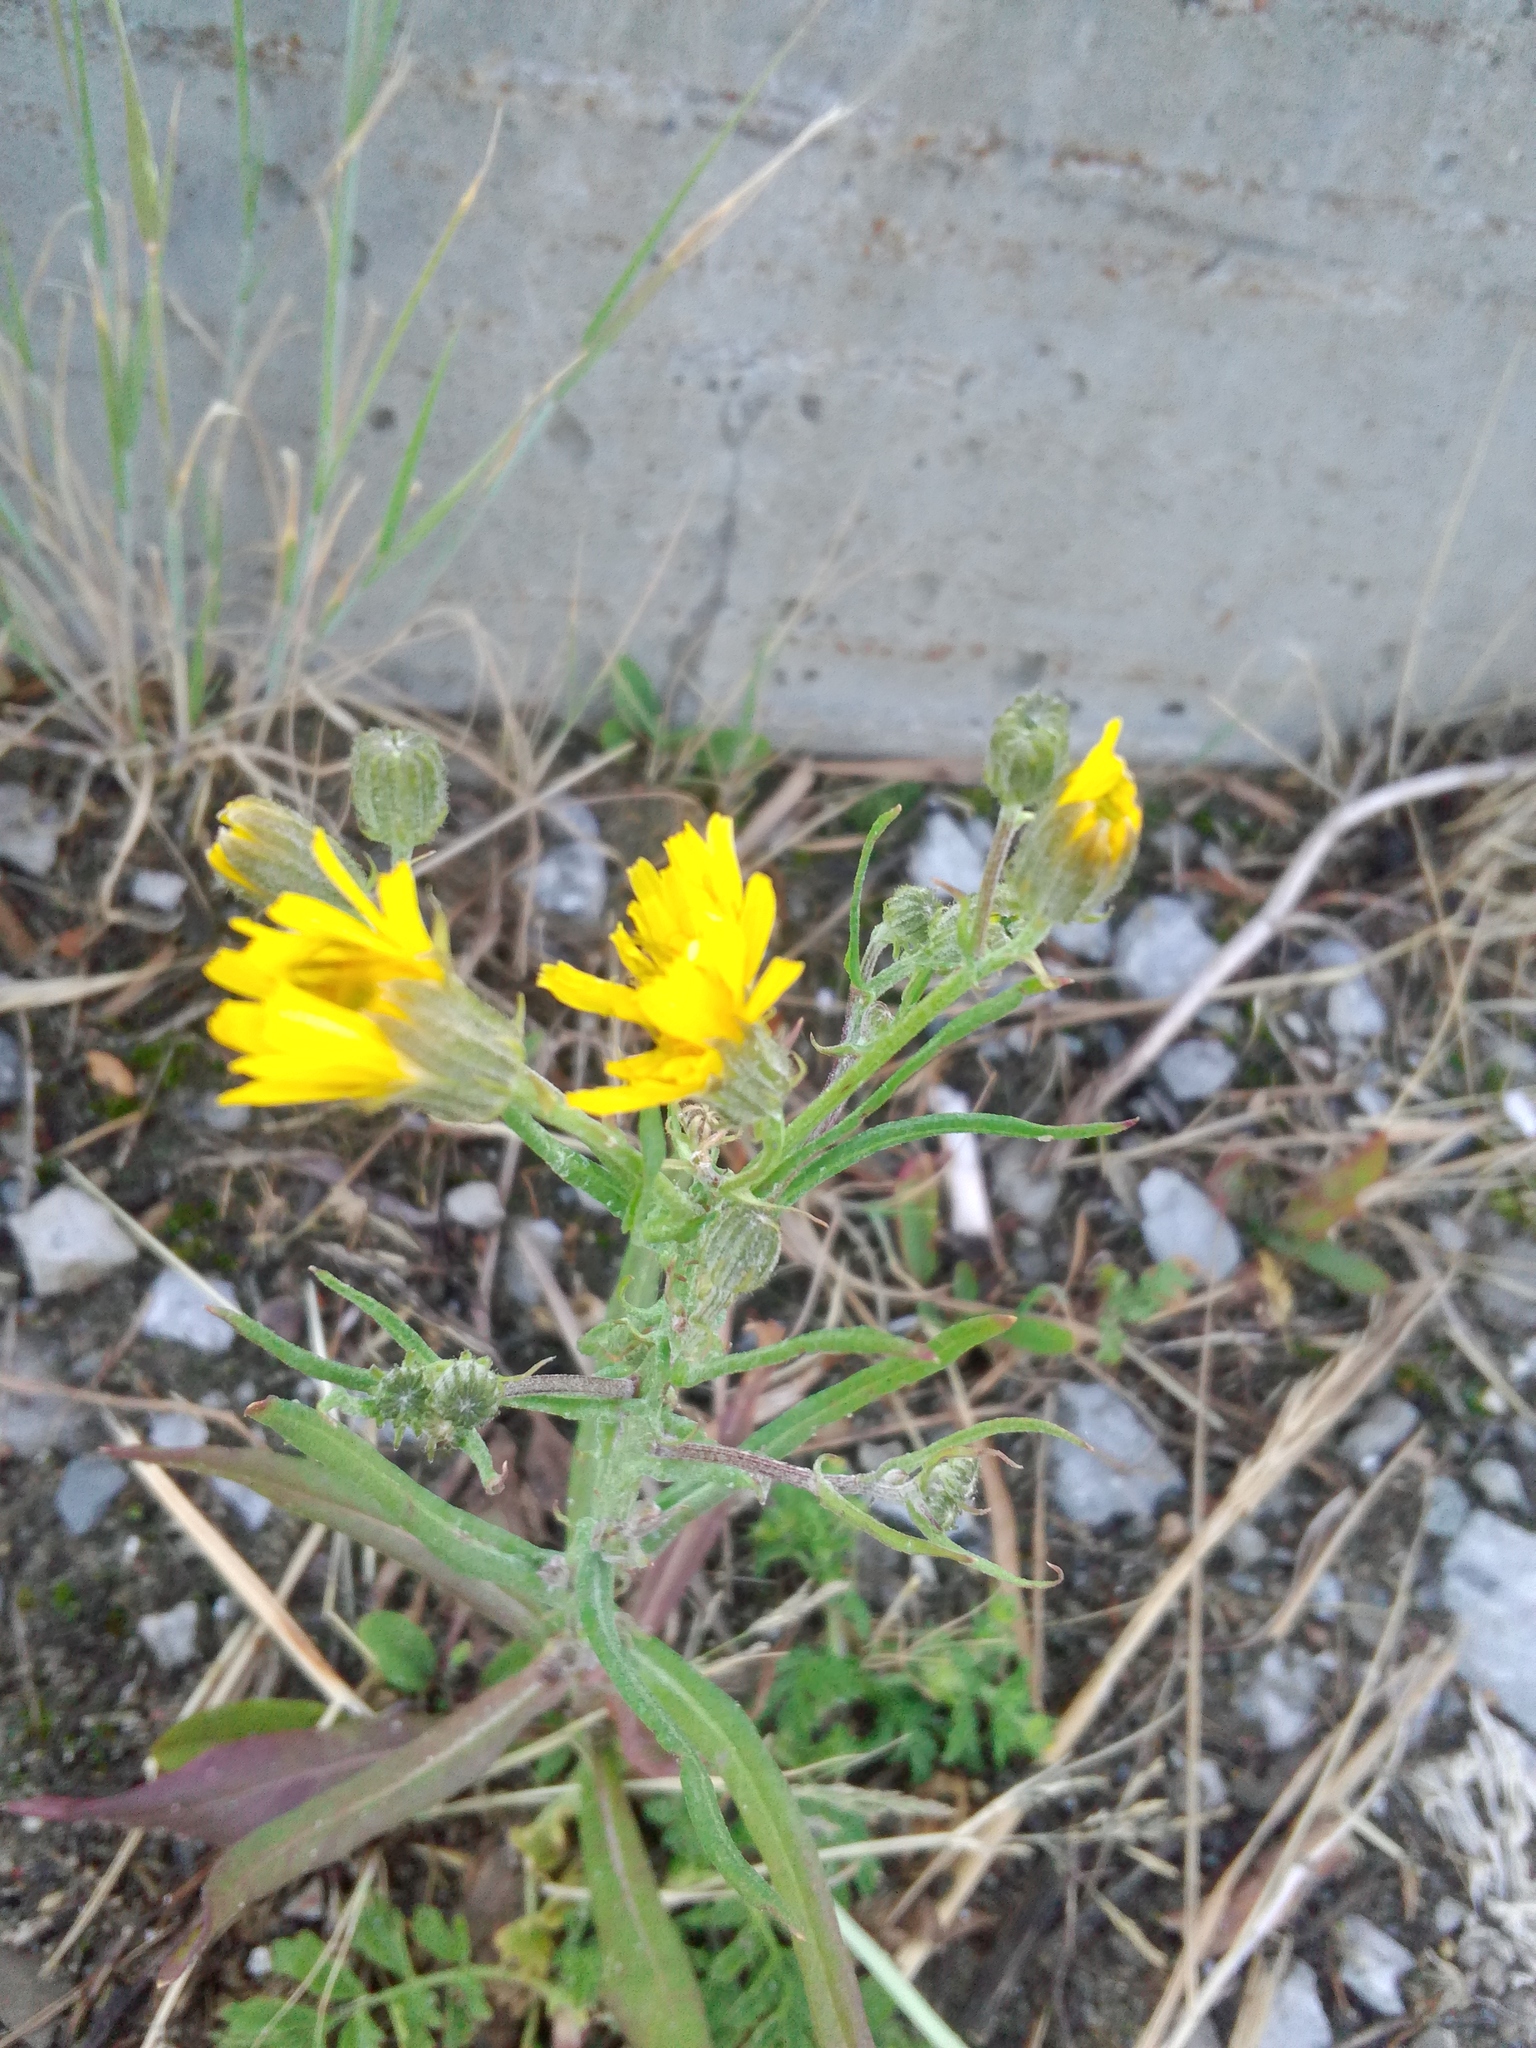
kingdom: Plantae
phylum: Tracheophyta
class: Magnoliopsida
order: Asterales
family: Asteraceae
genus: Crepis
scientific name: Crepis tectorum
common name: Narrow-leaved hawk's-beard
